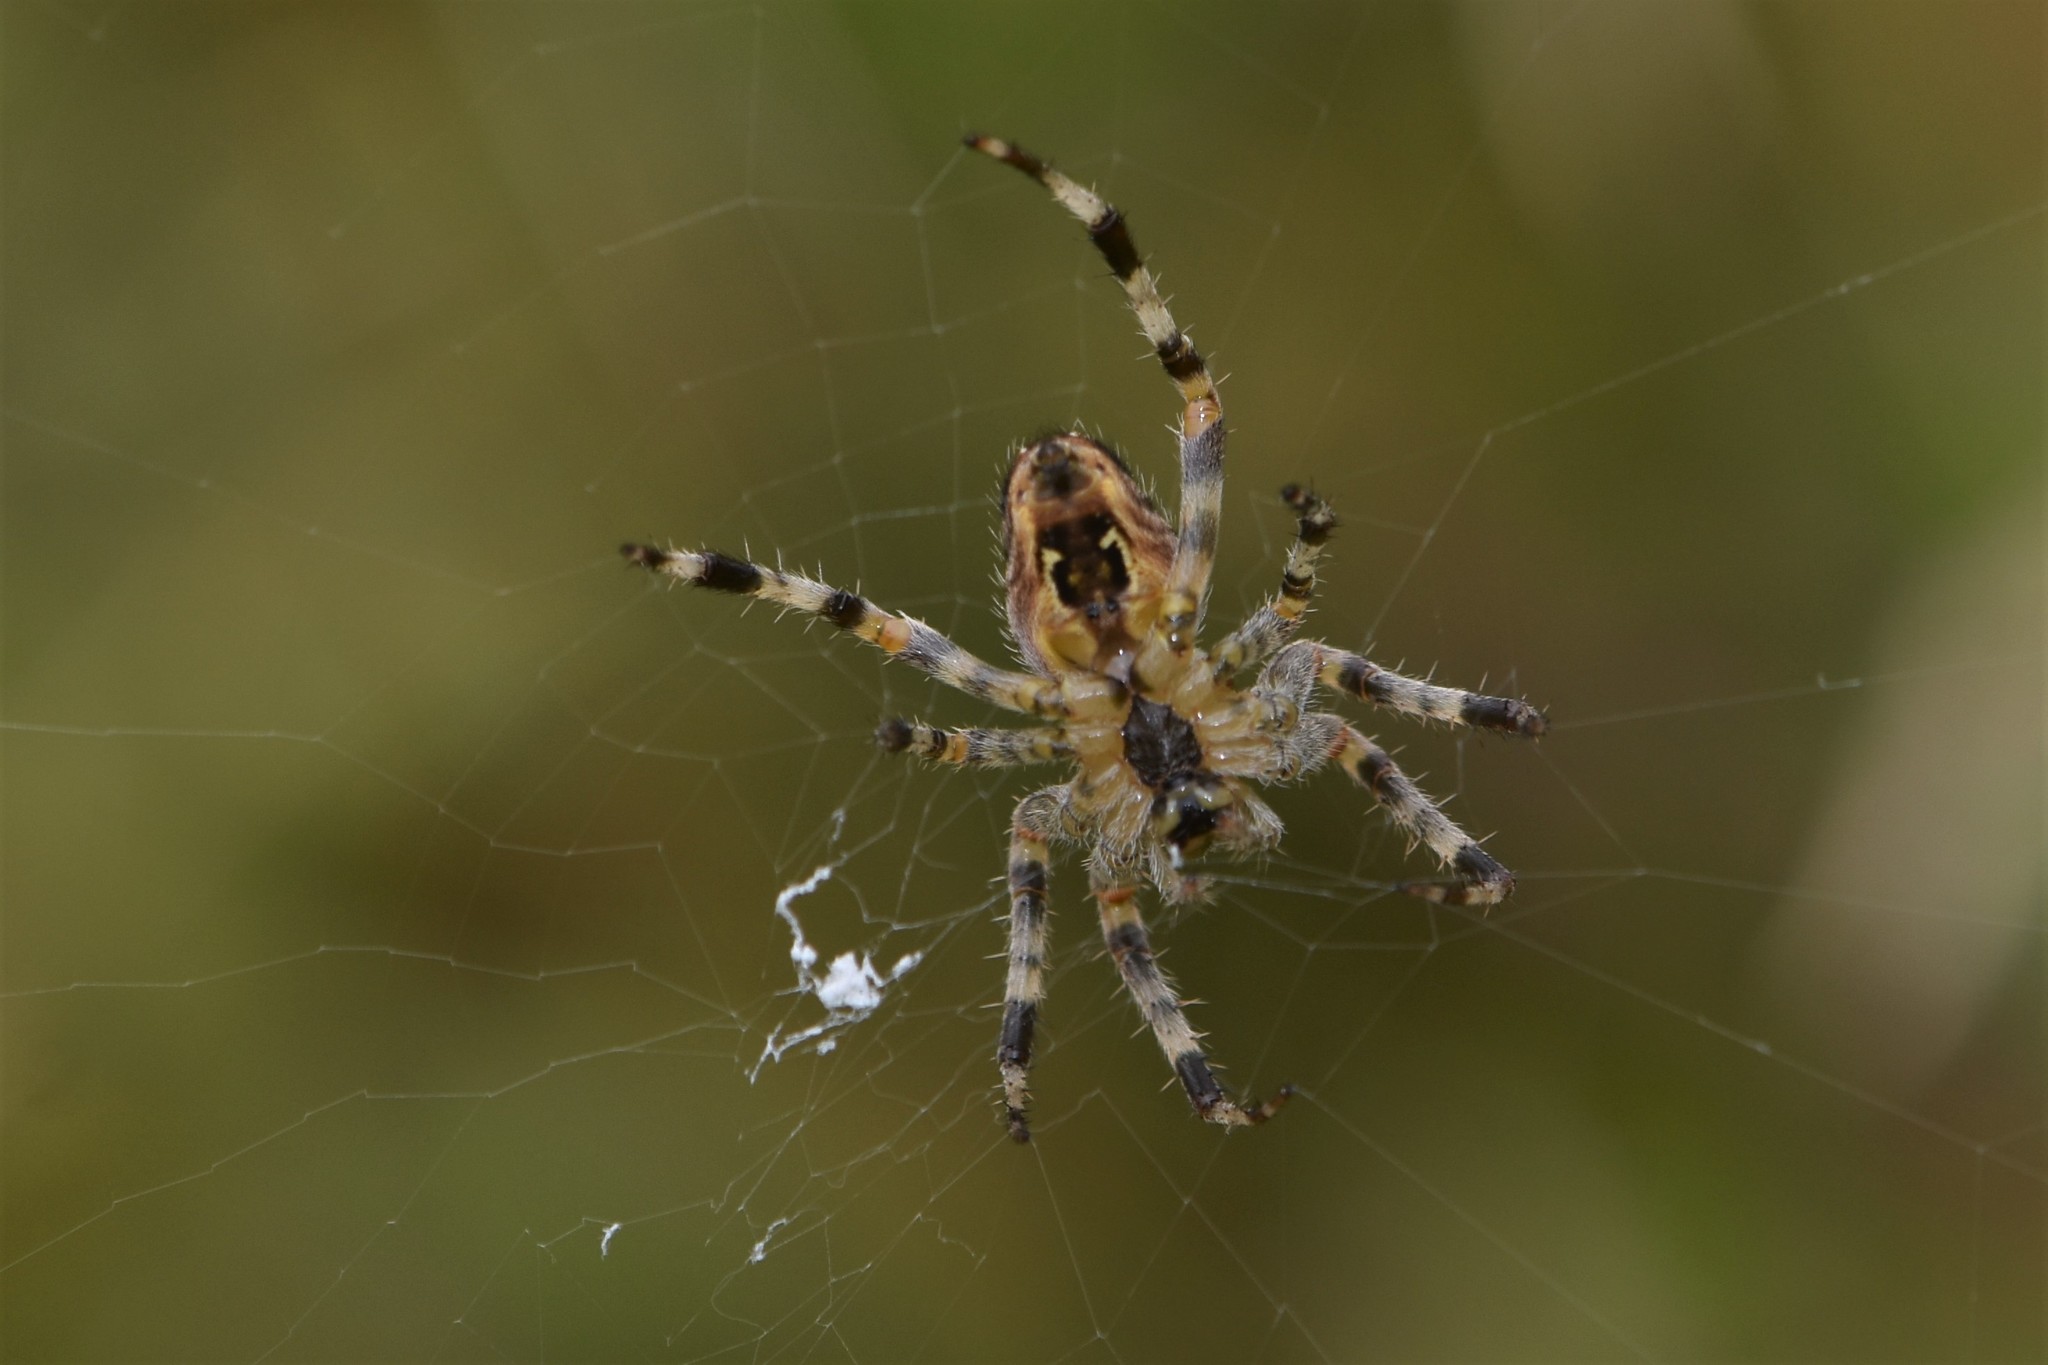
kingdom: Animalia
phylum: Arthropoda
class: Arachnida
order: Araneae
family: Araneidae
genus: Araneus
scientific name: Araneus diadematus
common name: Cross orbweaver
